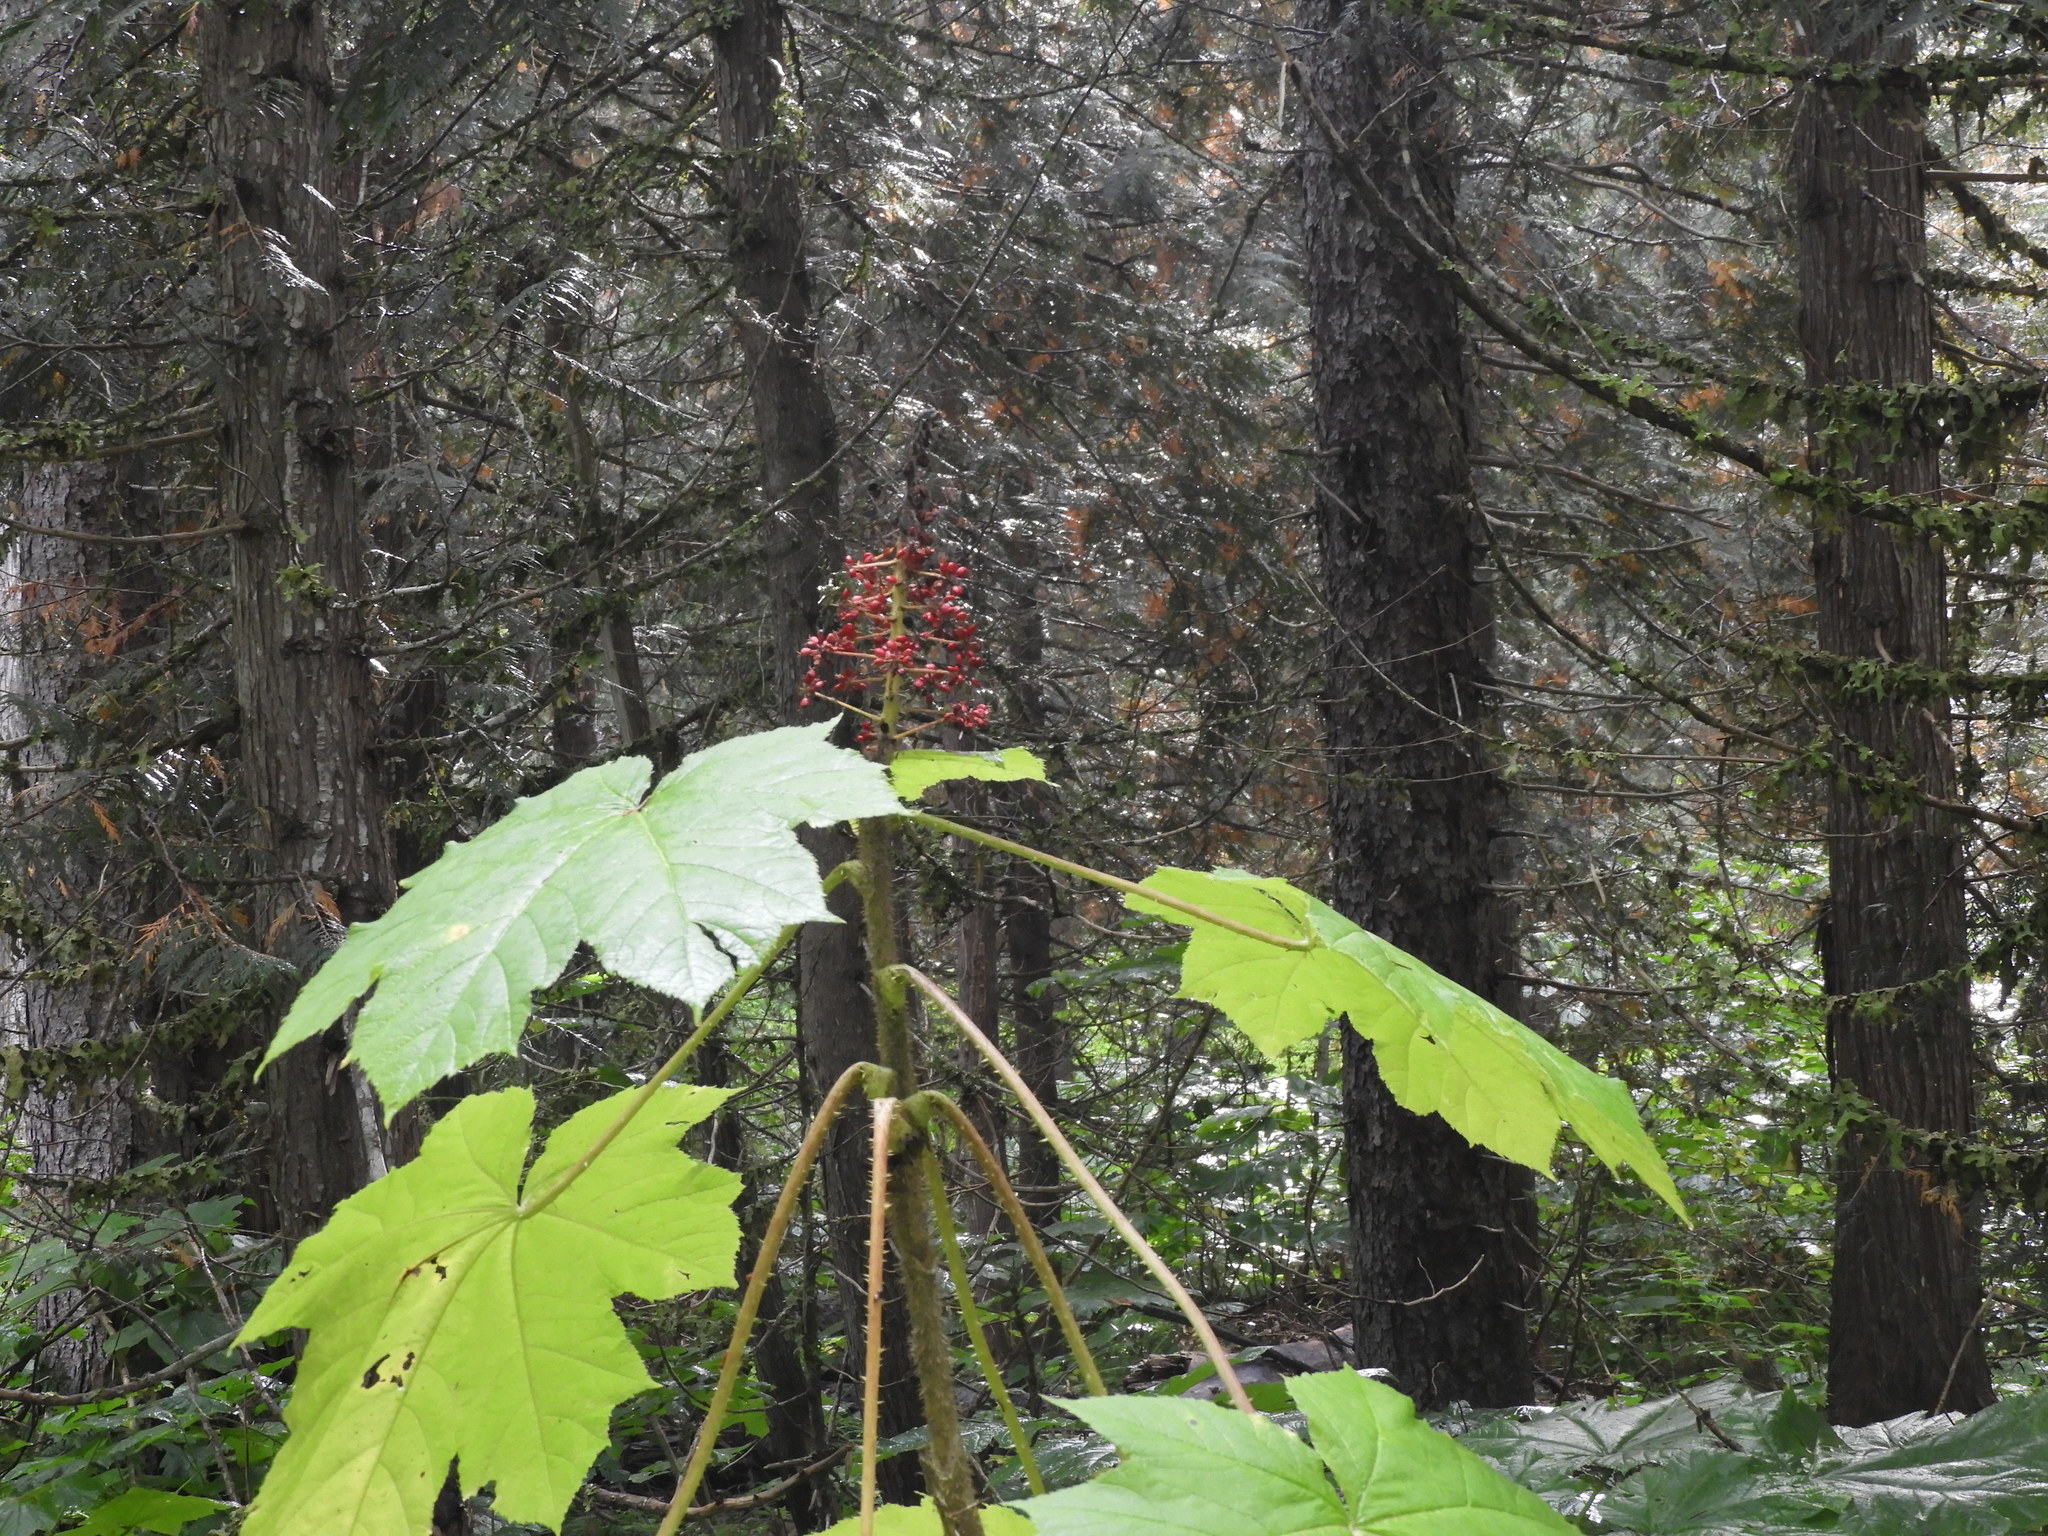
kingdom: Plantae
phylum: Tracheophyta
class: Magnoliopsida
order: Apiales
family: Araliaceae
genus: Oplopanax
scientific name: Oplopanax horridus
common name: Devil's walking-stick
